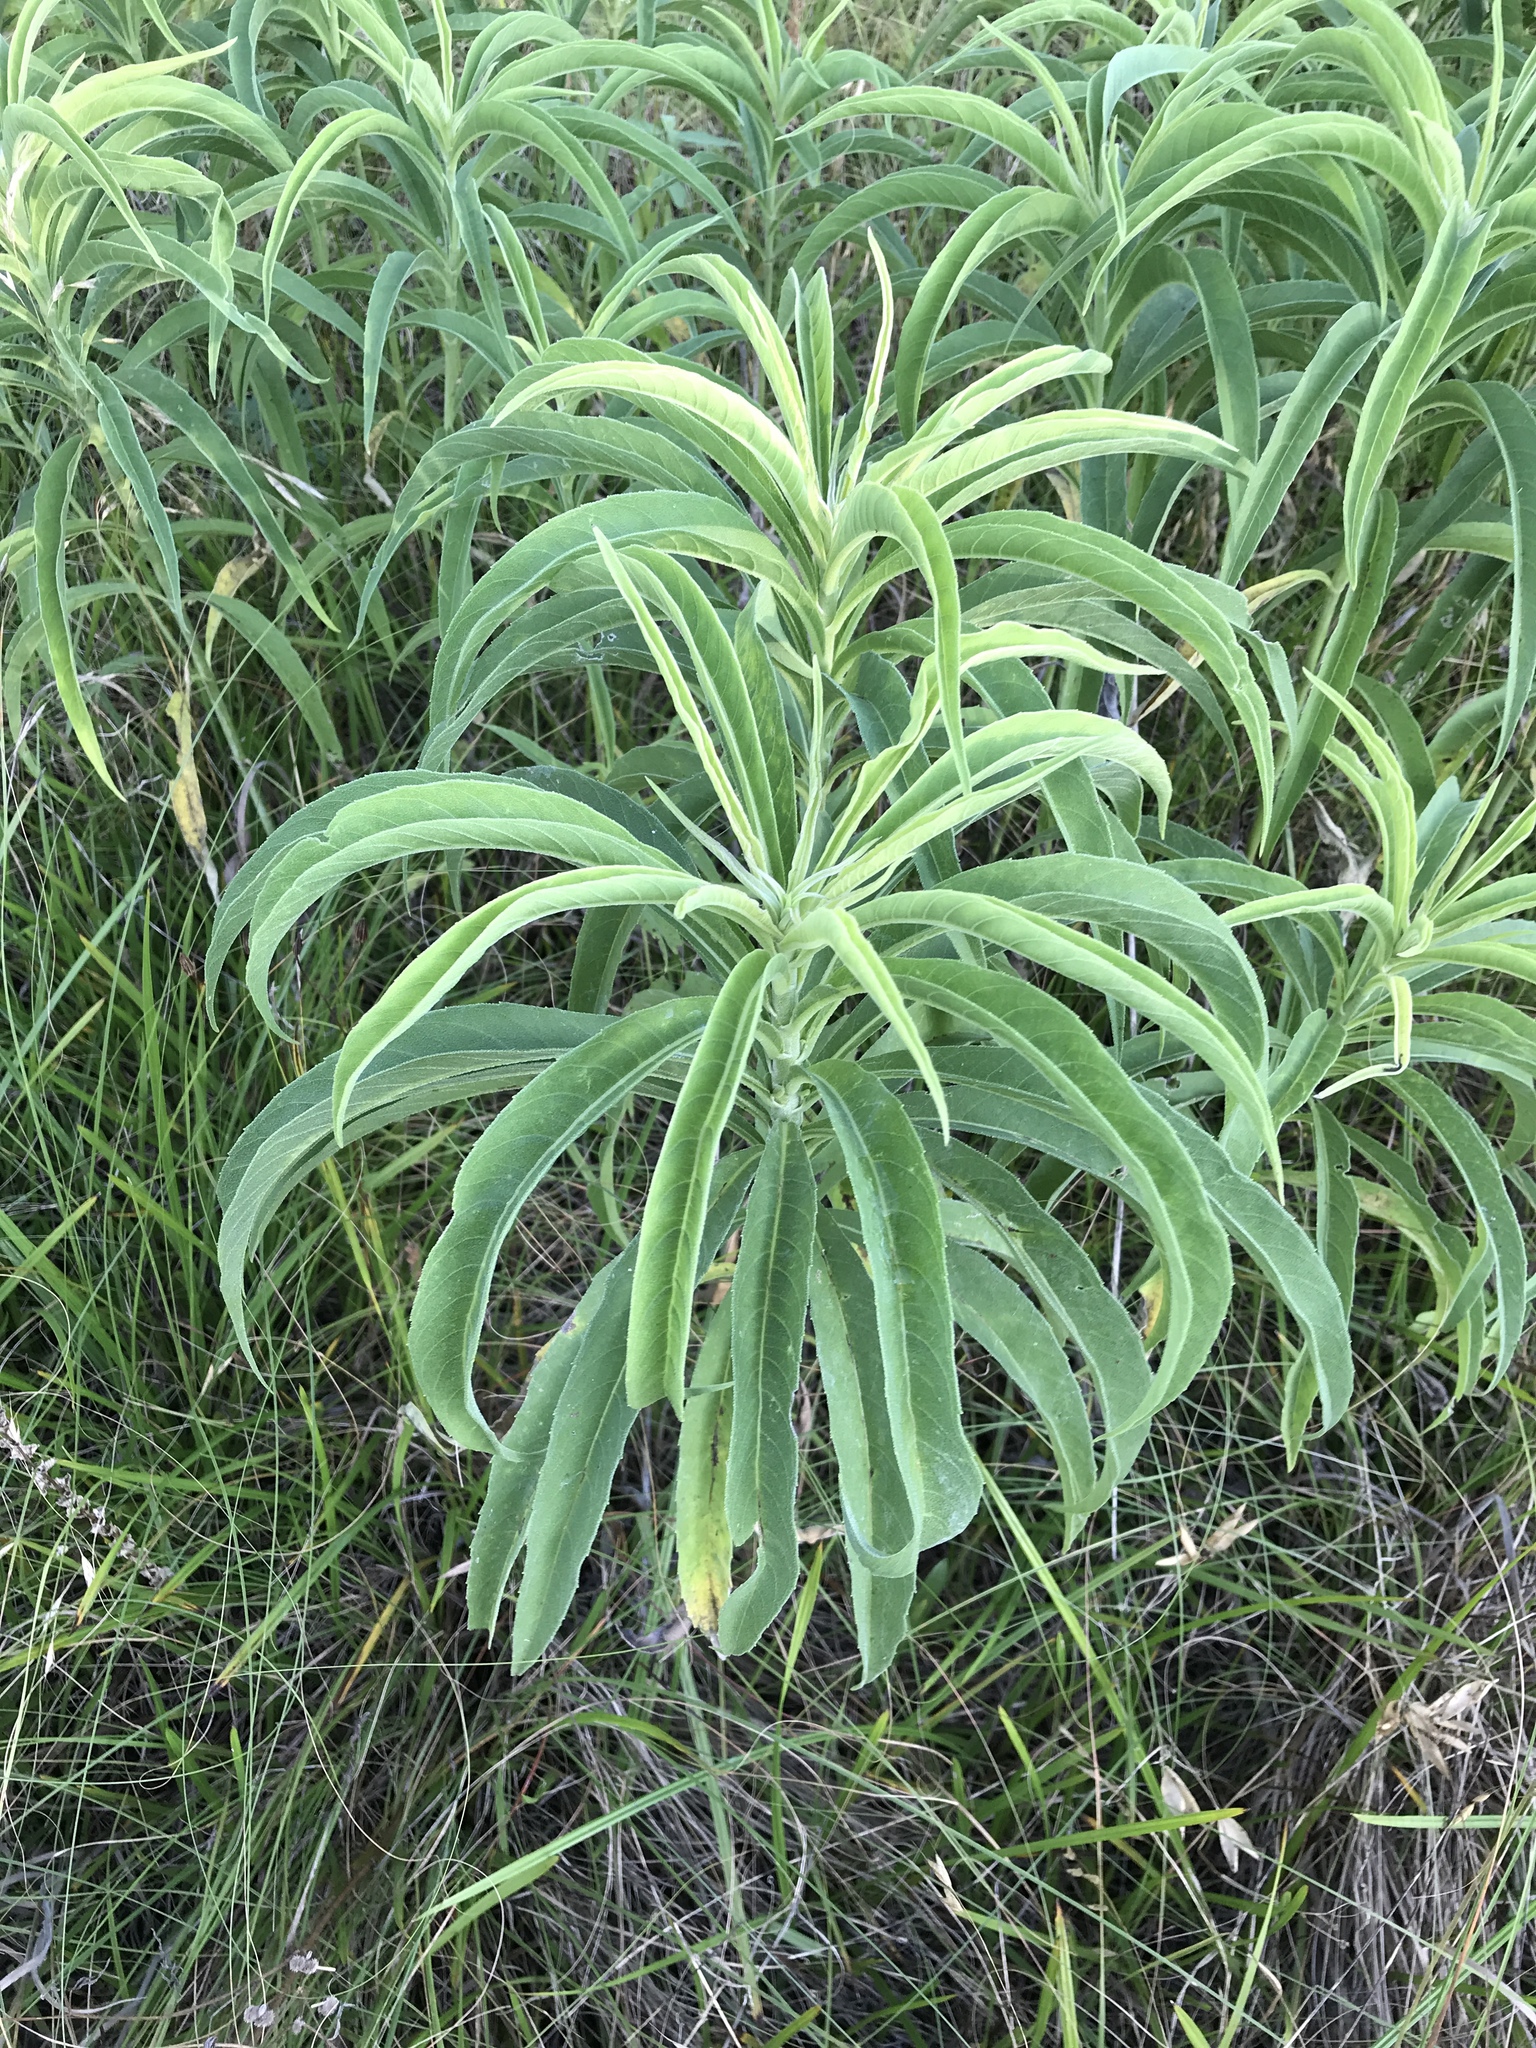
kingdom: Plantae
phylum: Tracheophyta
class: Magnoliopsida
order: Asterales
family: Asteraceae
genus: Helianthus
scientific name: Helianthus maximiliani
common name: Maximilian's sunflower
